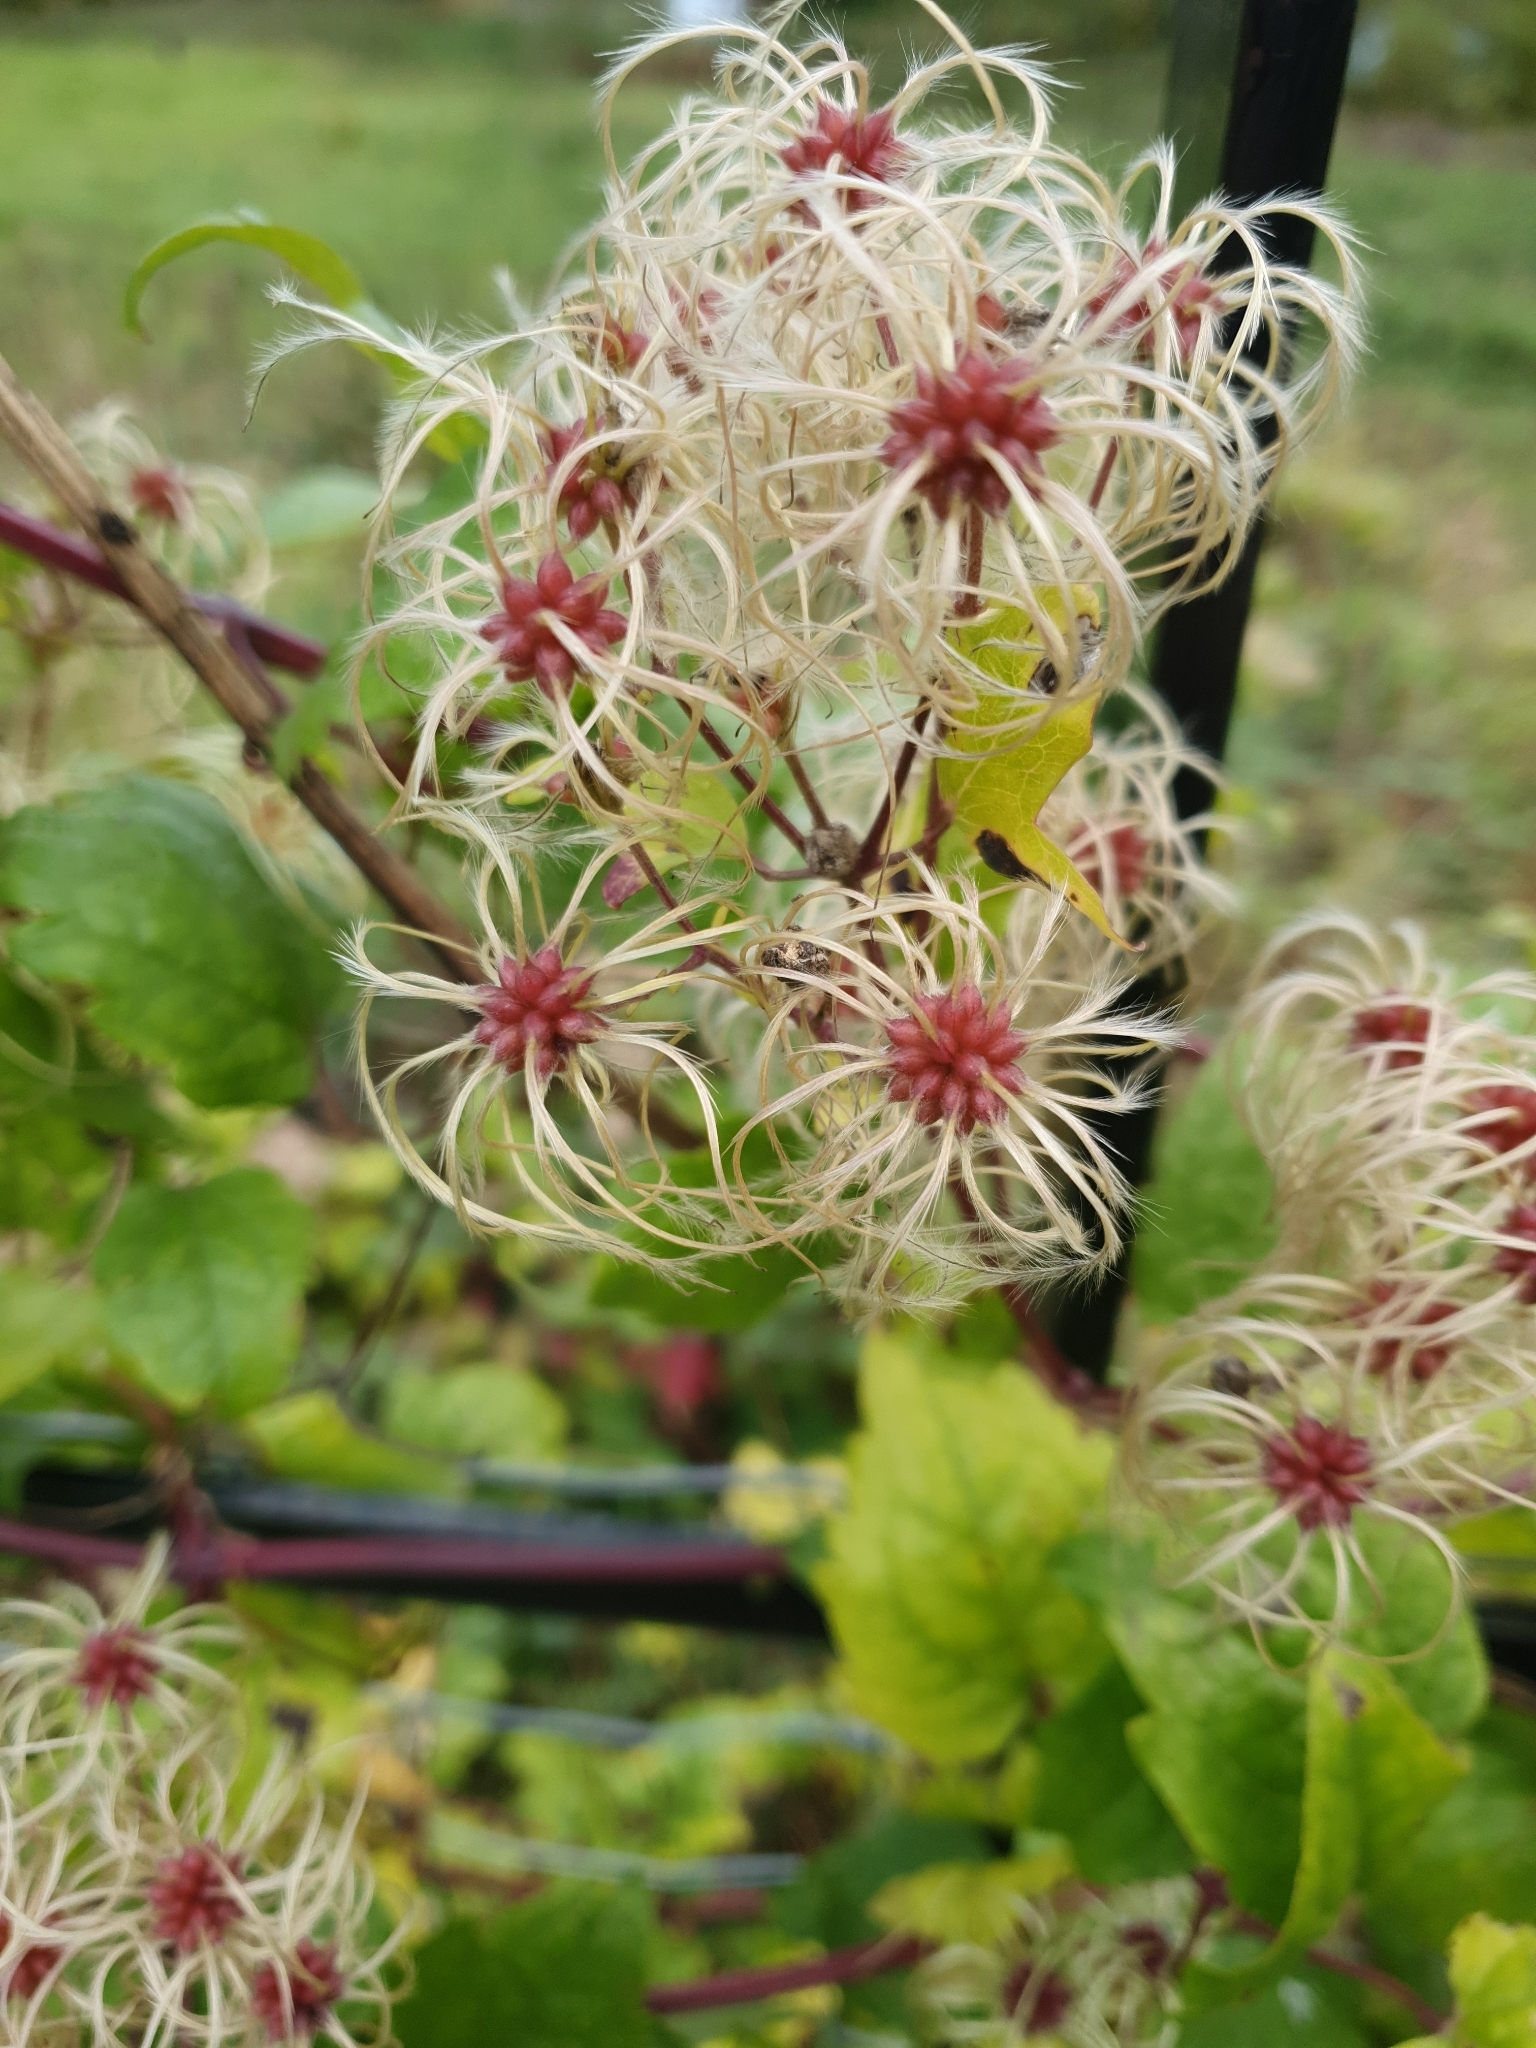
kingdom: Plantae
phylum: Tracheophyta
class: Magnoliopsida
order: Ranunculales
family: Ranunculaceae
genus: Clematis
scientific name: Clematis vitalba
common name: Evergreen clematis
